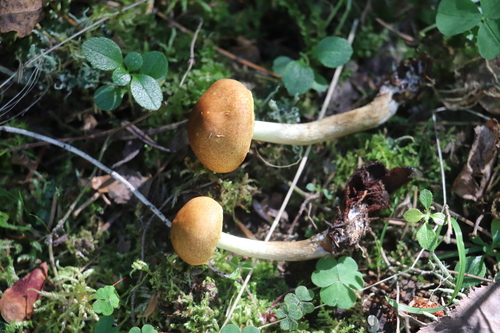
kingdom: Fungi
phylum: Basidiomycota
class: Agaricomycetes
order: Agaricales
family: Strophariaceae
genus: Pholiota
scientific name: Pholiota elegans
